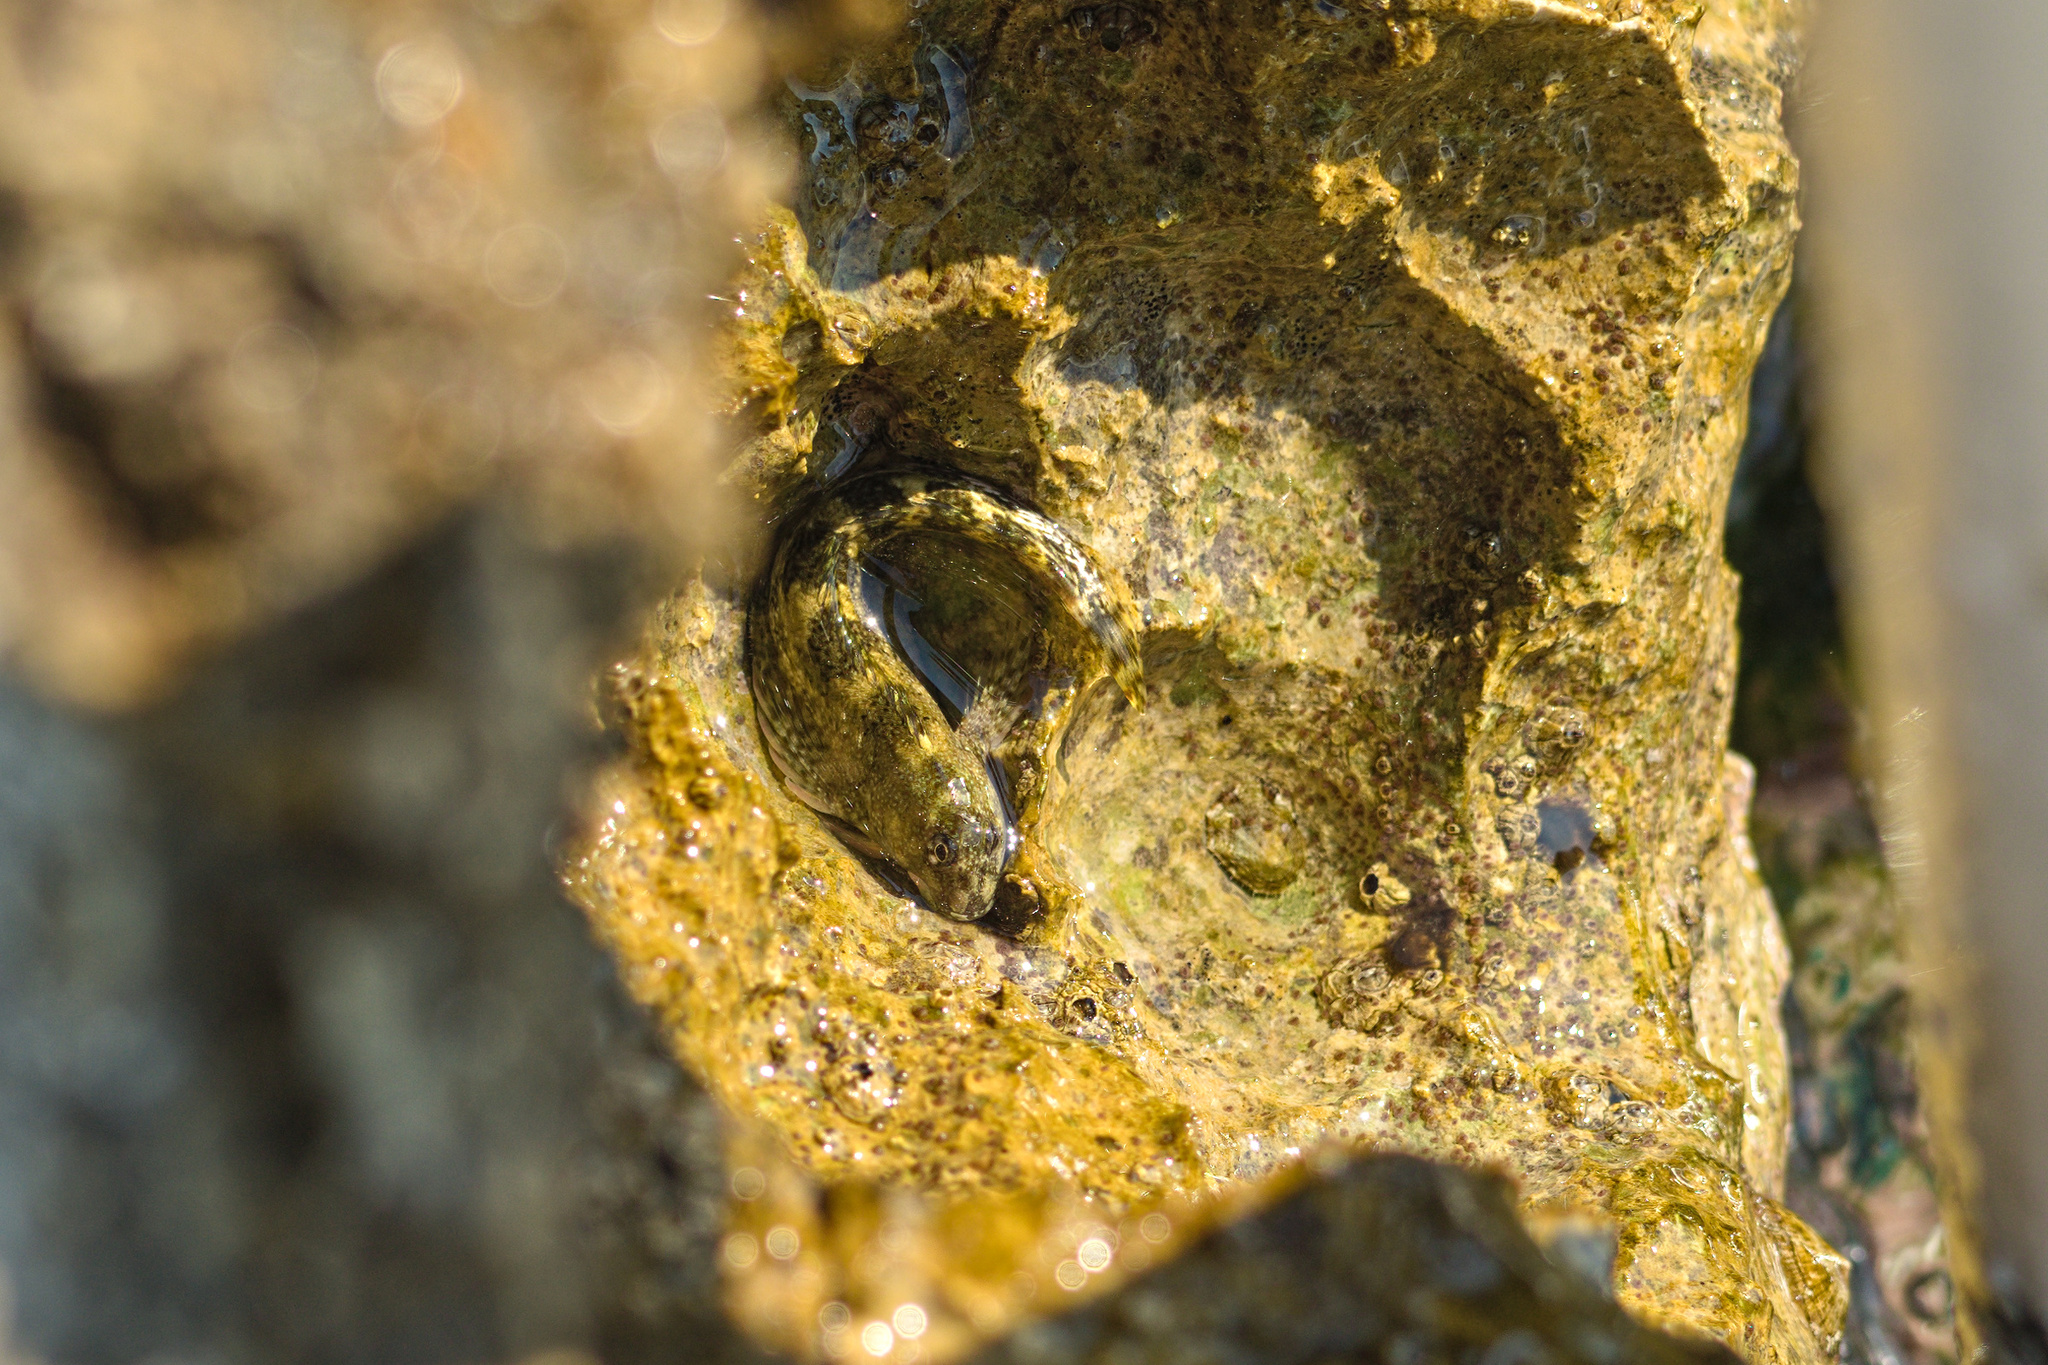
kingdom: Animalia
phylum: Chordata
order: Perciformes
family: Blenniidae
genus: Coryphoblennius
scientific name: Coryphoblennius galerita
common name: Montagu's blenny
